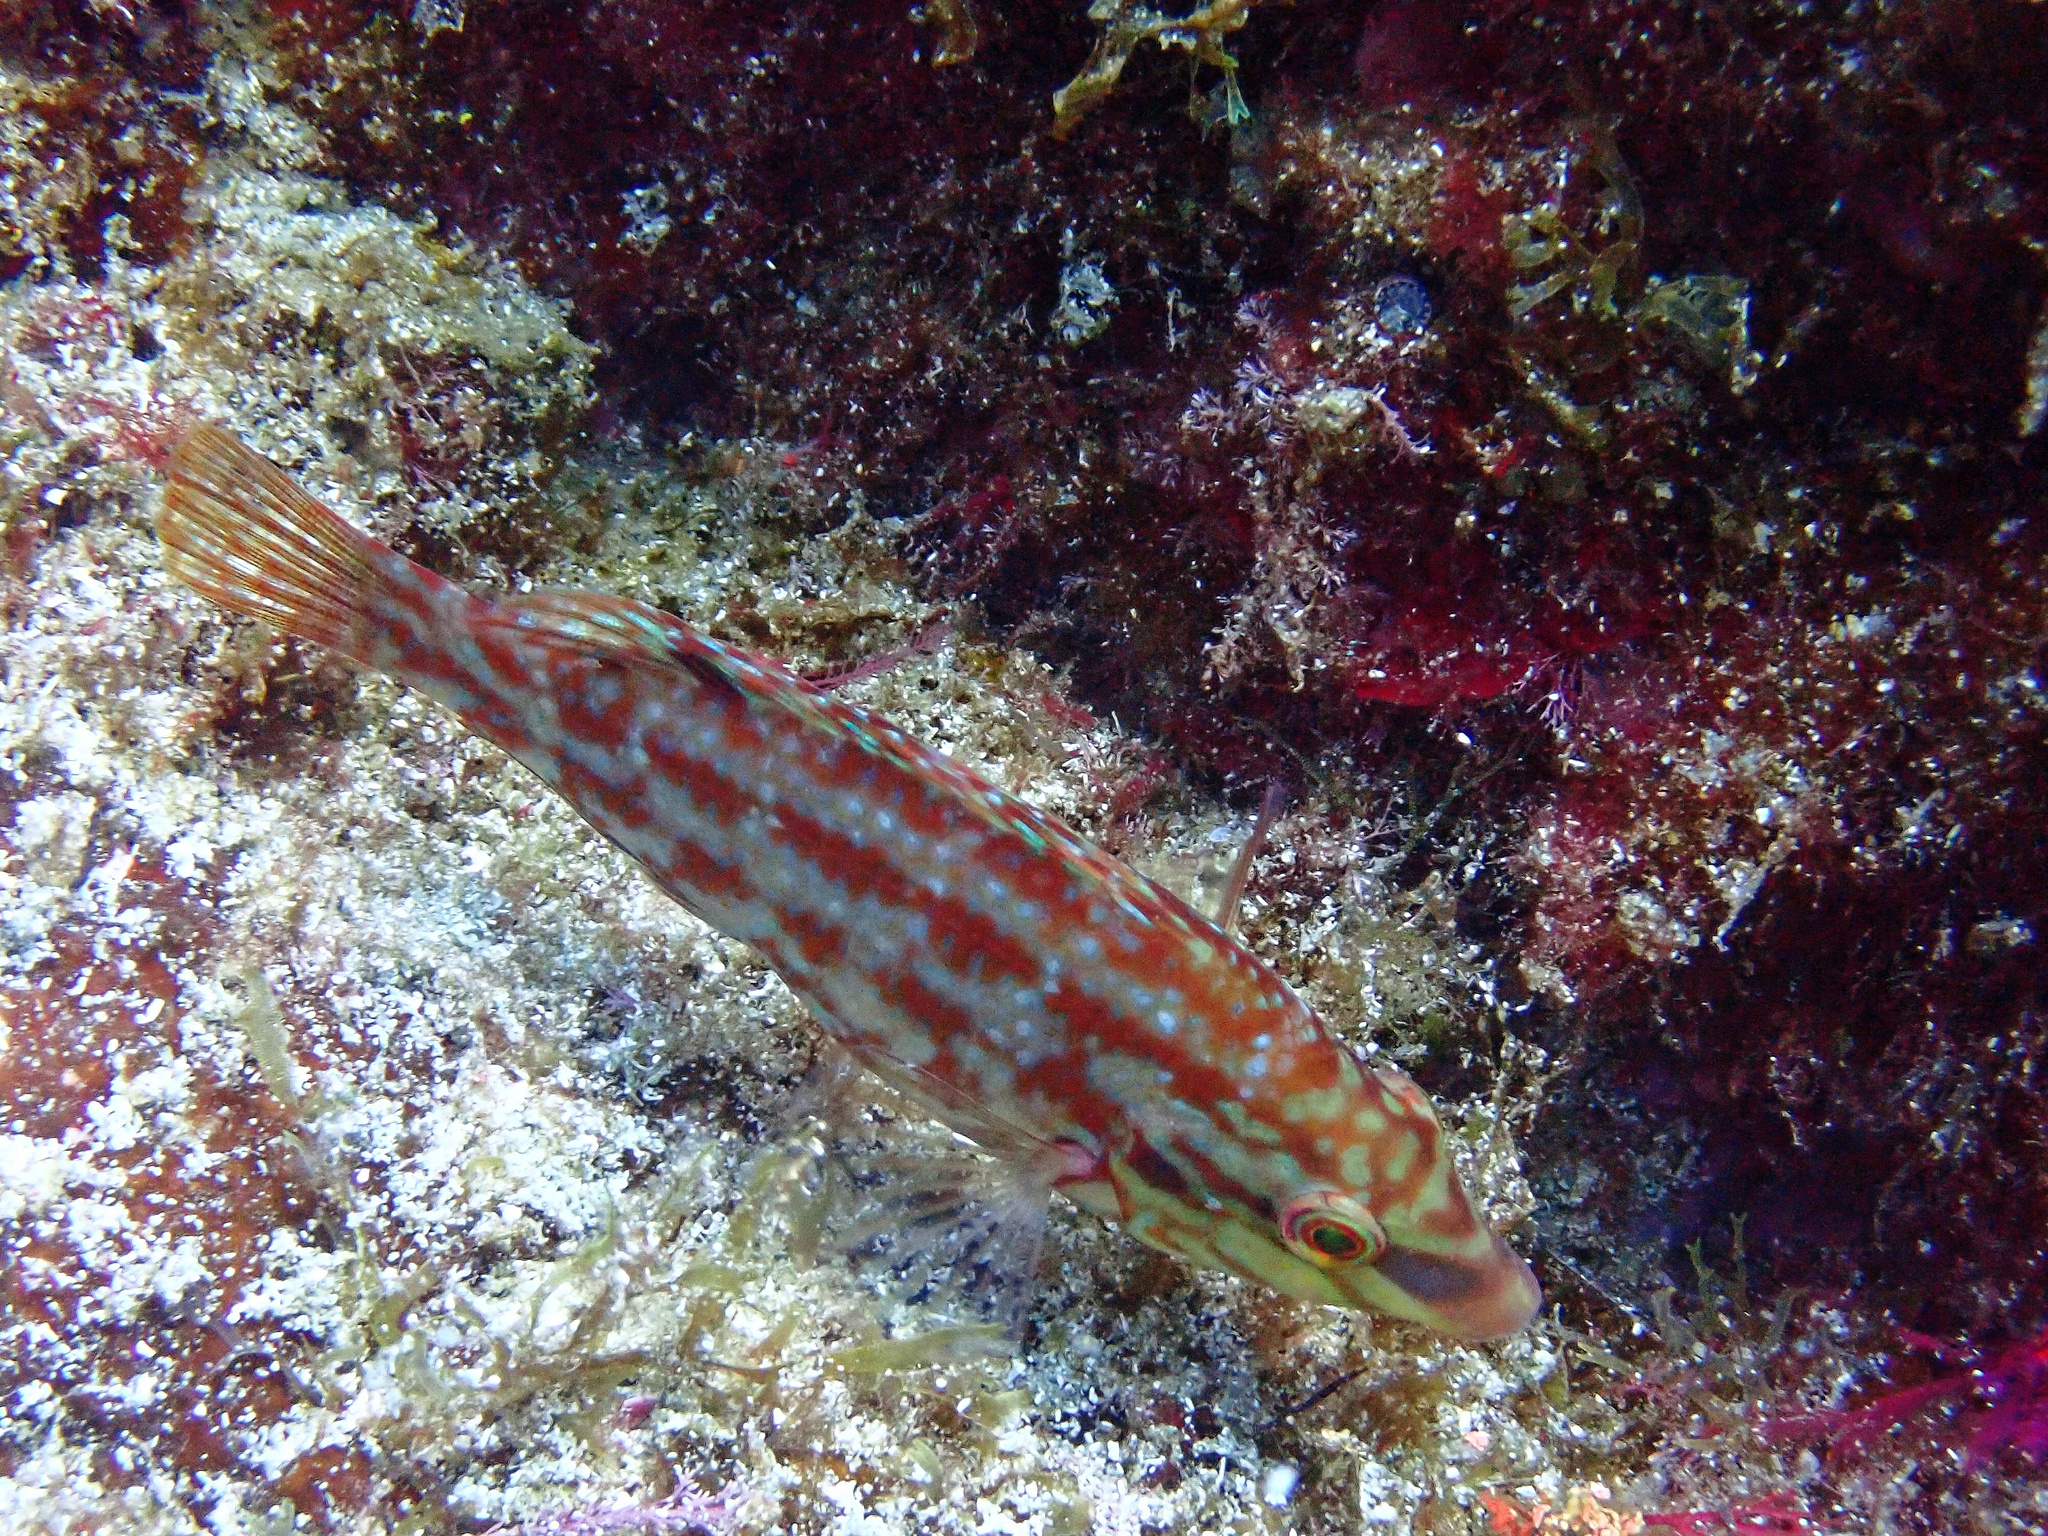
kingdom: Animalia
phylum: Chordata
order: Perciformes
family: Labridae
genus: Symphodus
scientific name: Symphodus roissali
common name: Five-spotted wrasse
